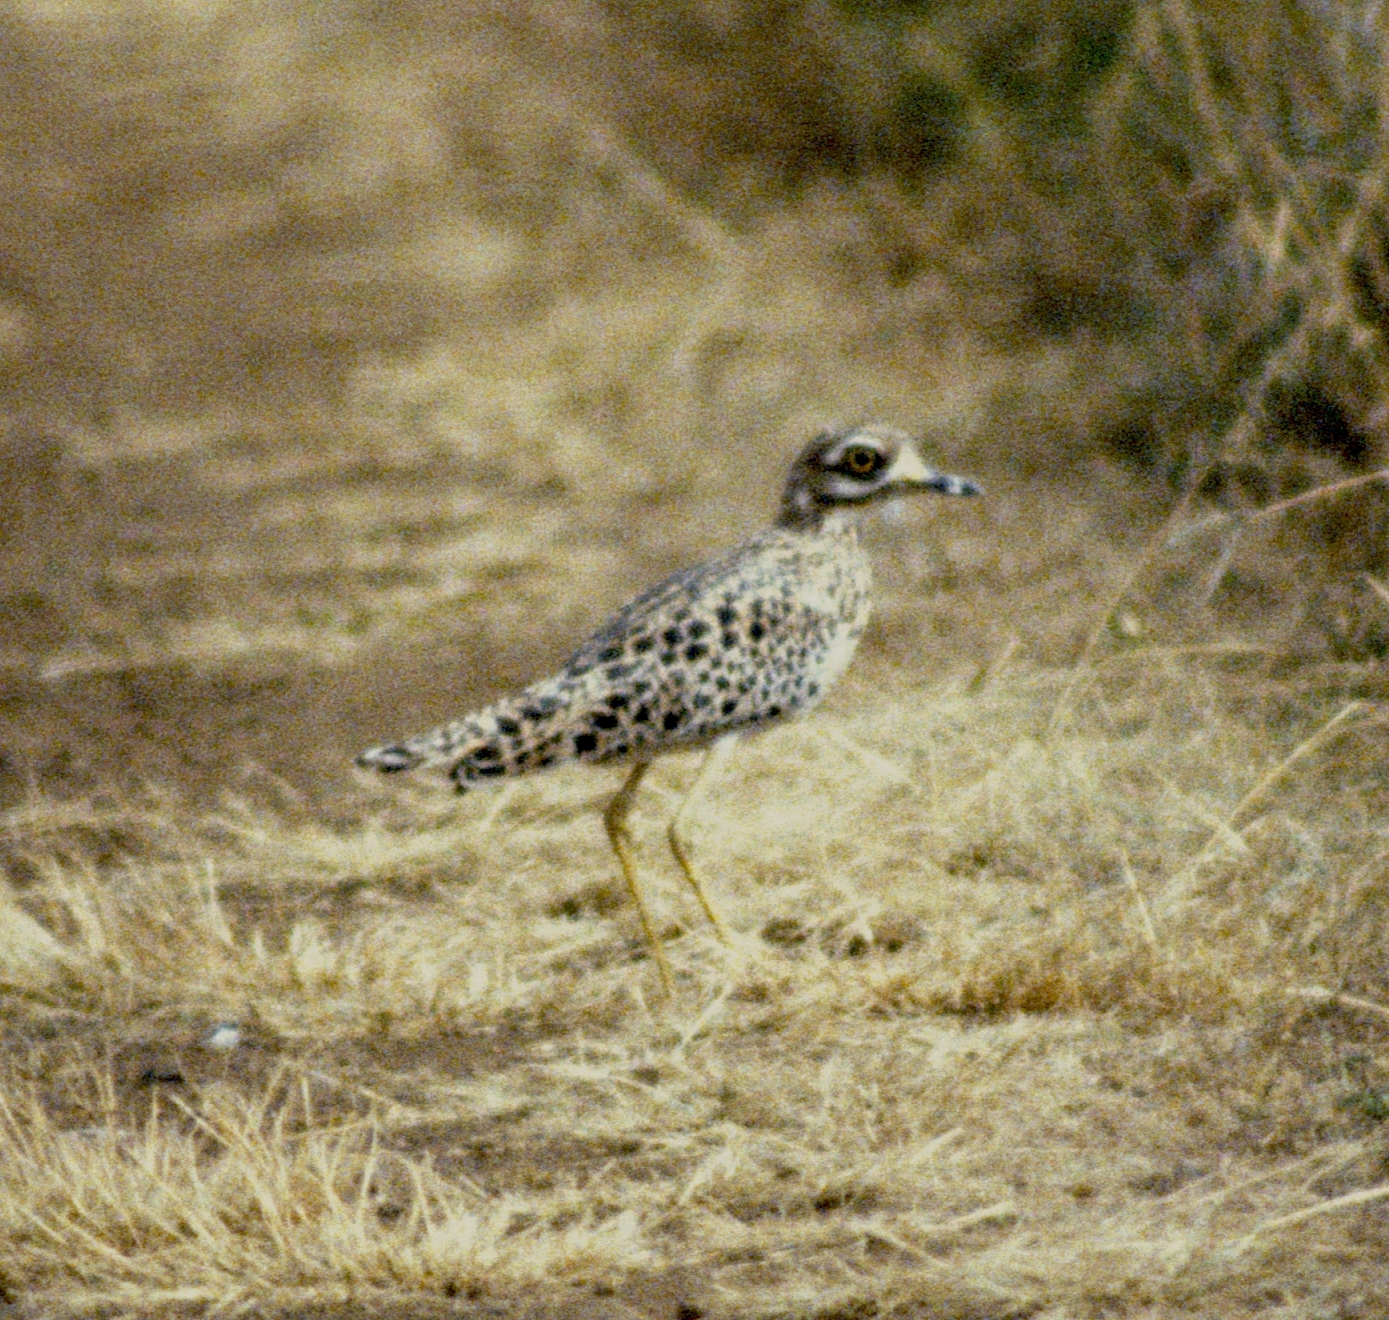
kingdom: Animalia
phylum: Chordata
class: Aves
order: Charadriiformes
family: Burhinidae
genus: Burhinus
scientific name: Burhinus capensis
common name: Spotted thick-knee
